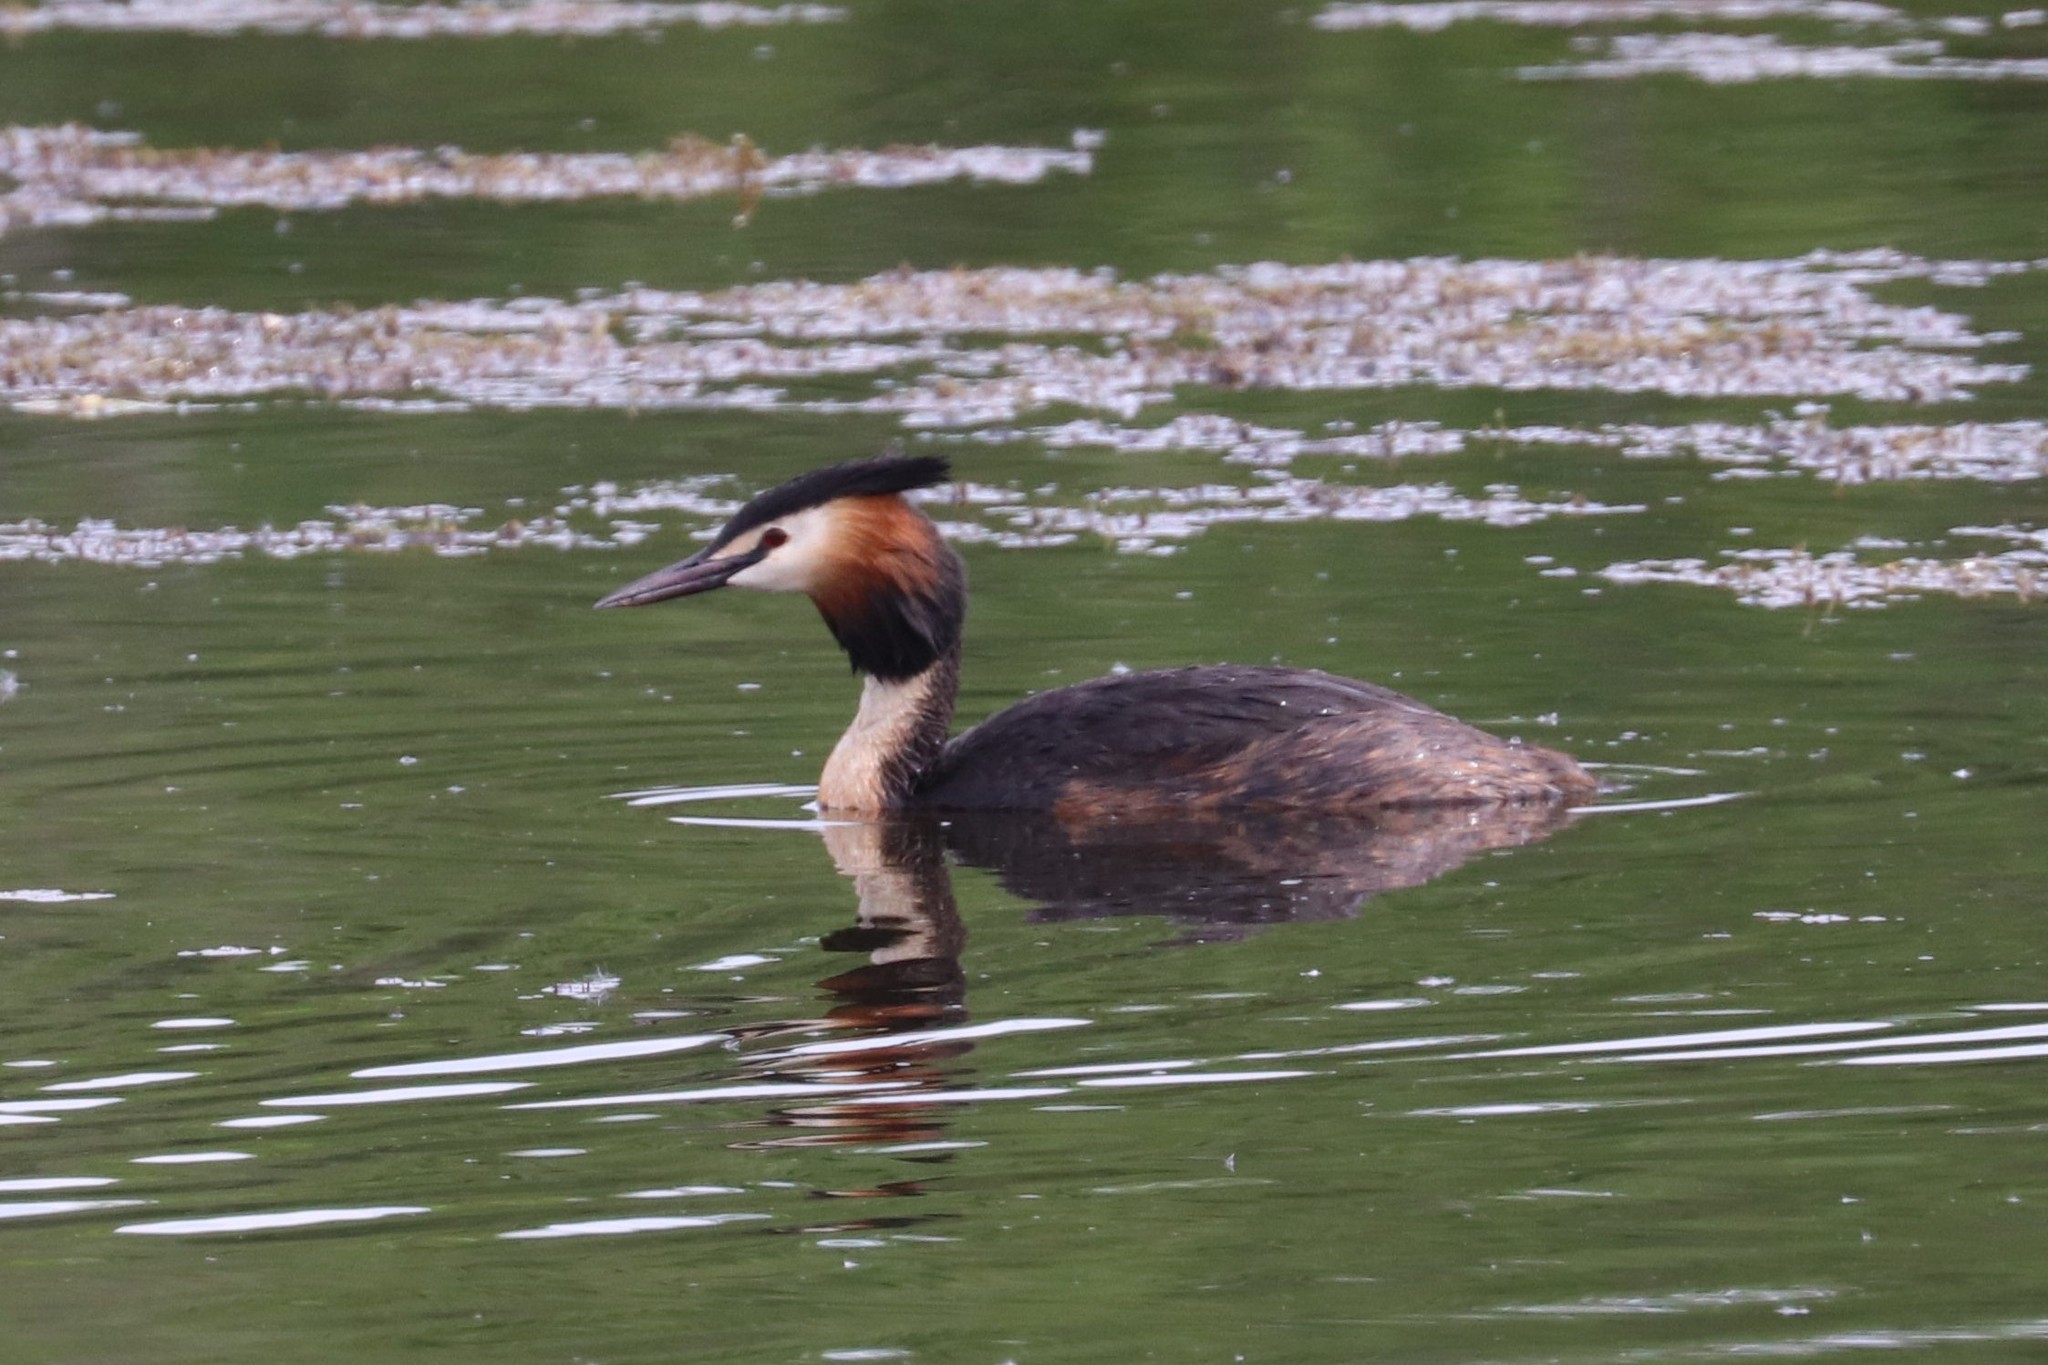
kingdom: Animalia
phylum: Chordata
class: Aves
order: Podicipediformes
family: Podicipedidae
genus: Podiceps
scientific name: Podiceps cristatus
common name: Great crested grebe
